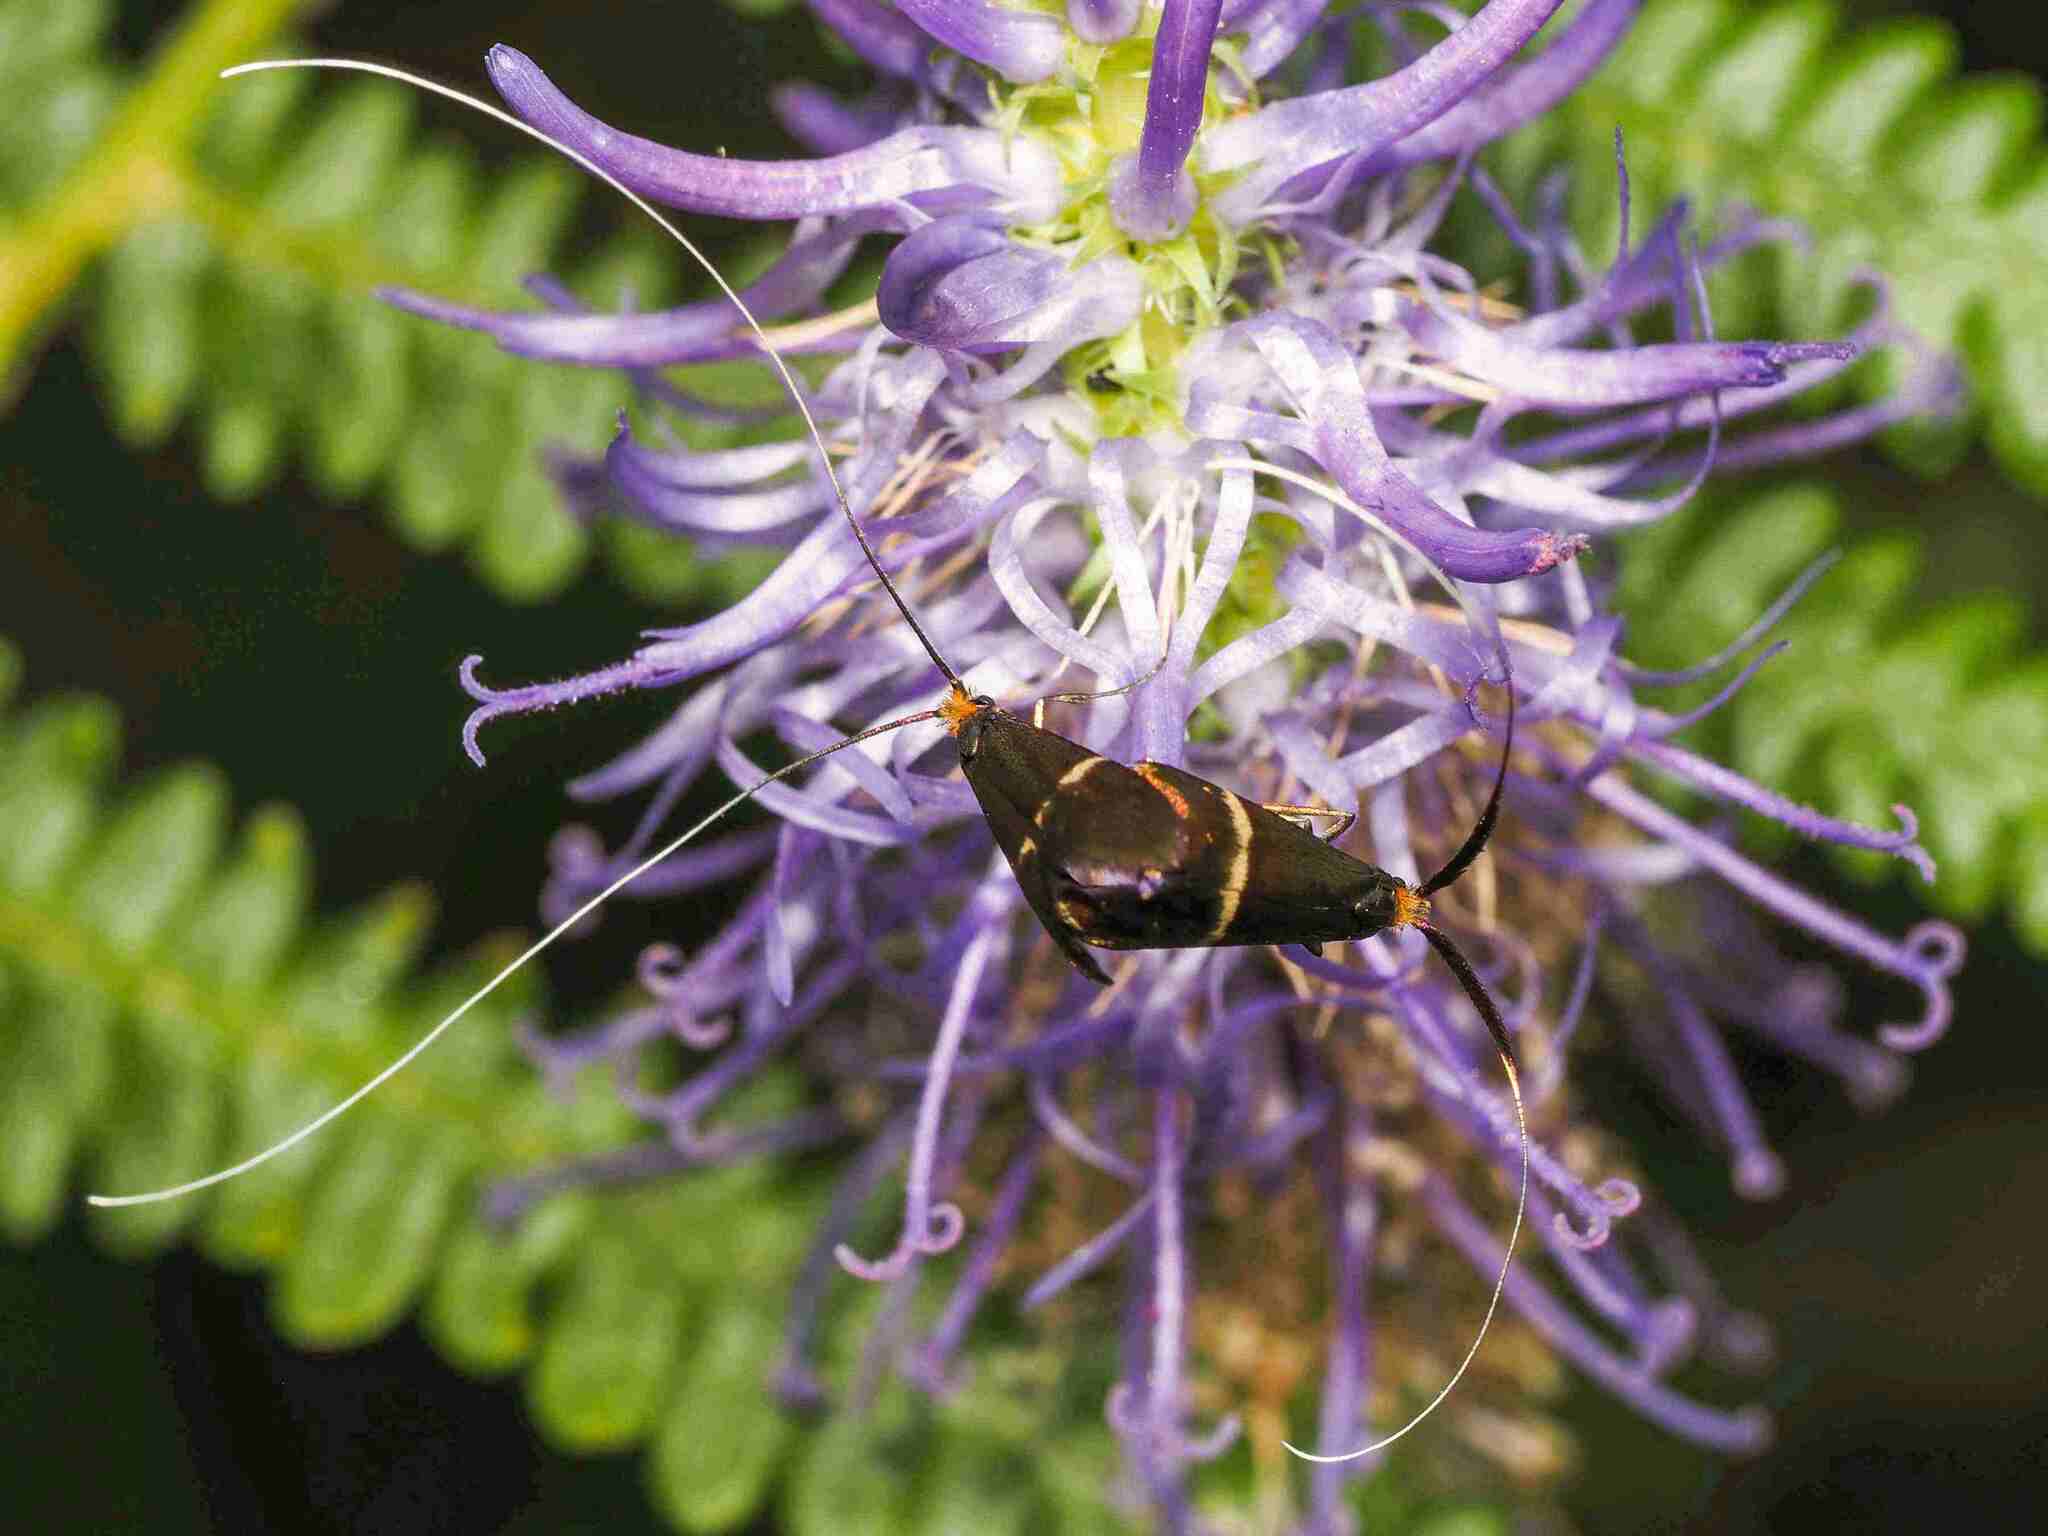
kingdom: Animalia
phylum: Arthropoda
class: Insecta
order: Lepidoptera
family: Adelidae
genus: Adela
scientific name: Adela australis
